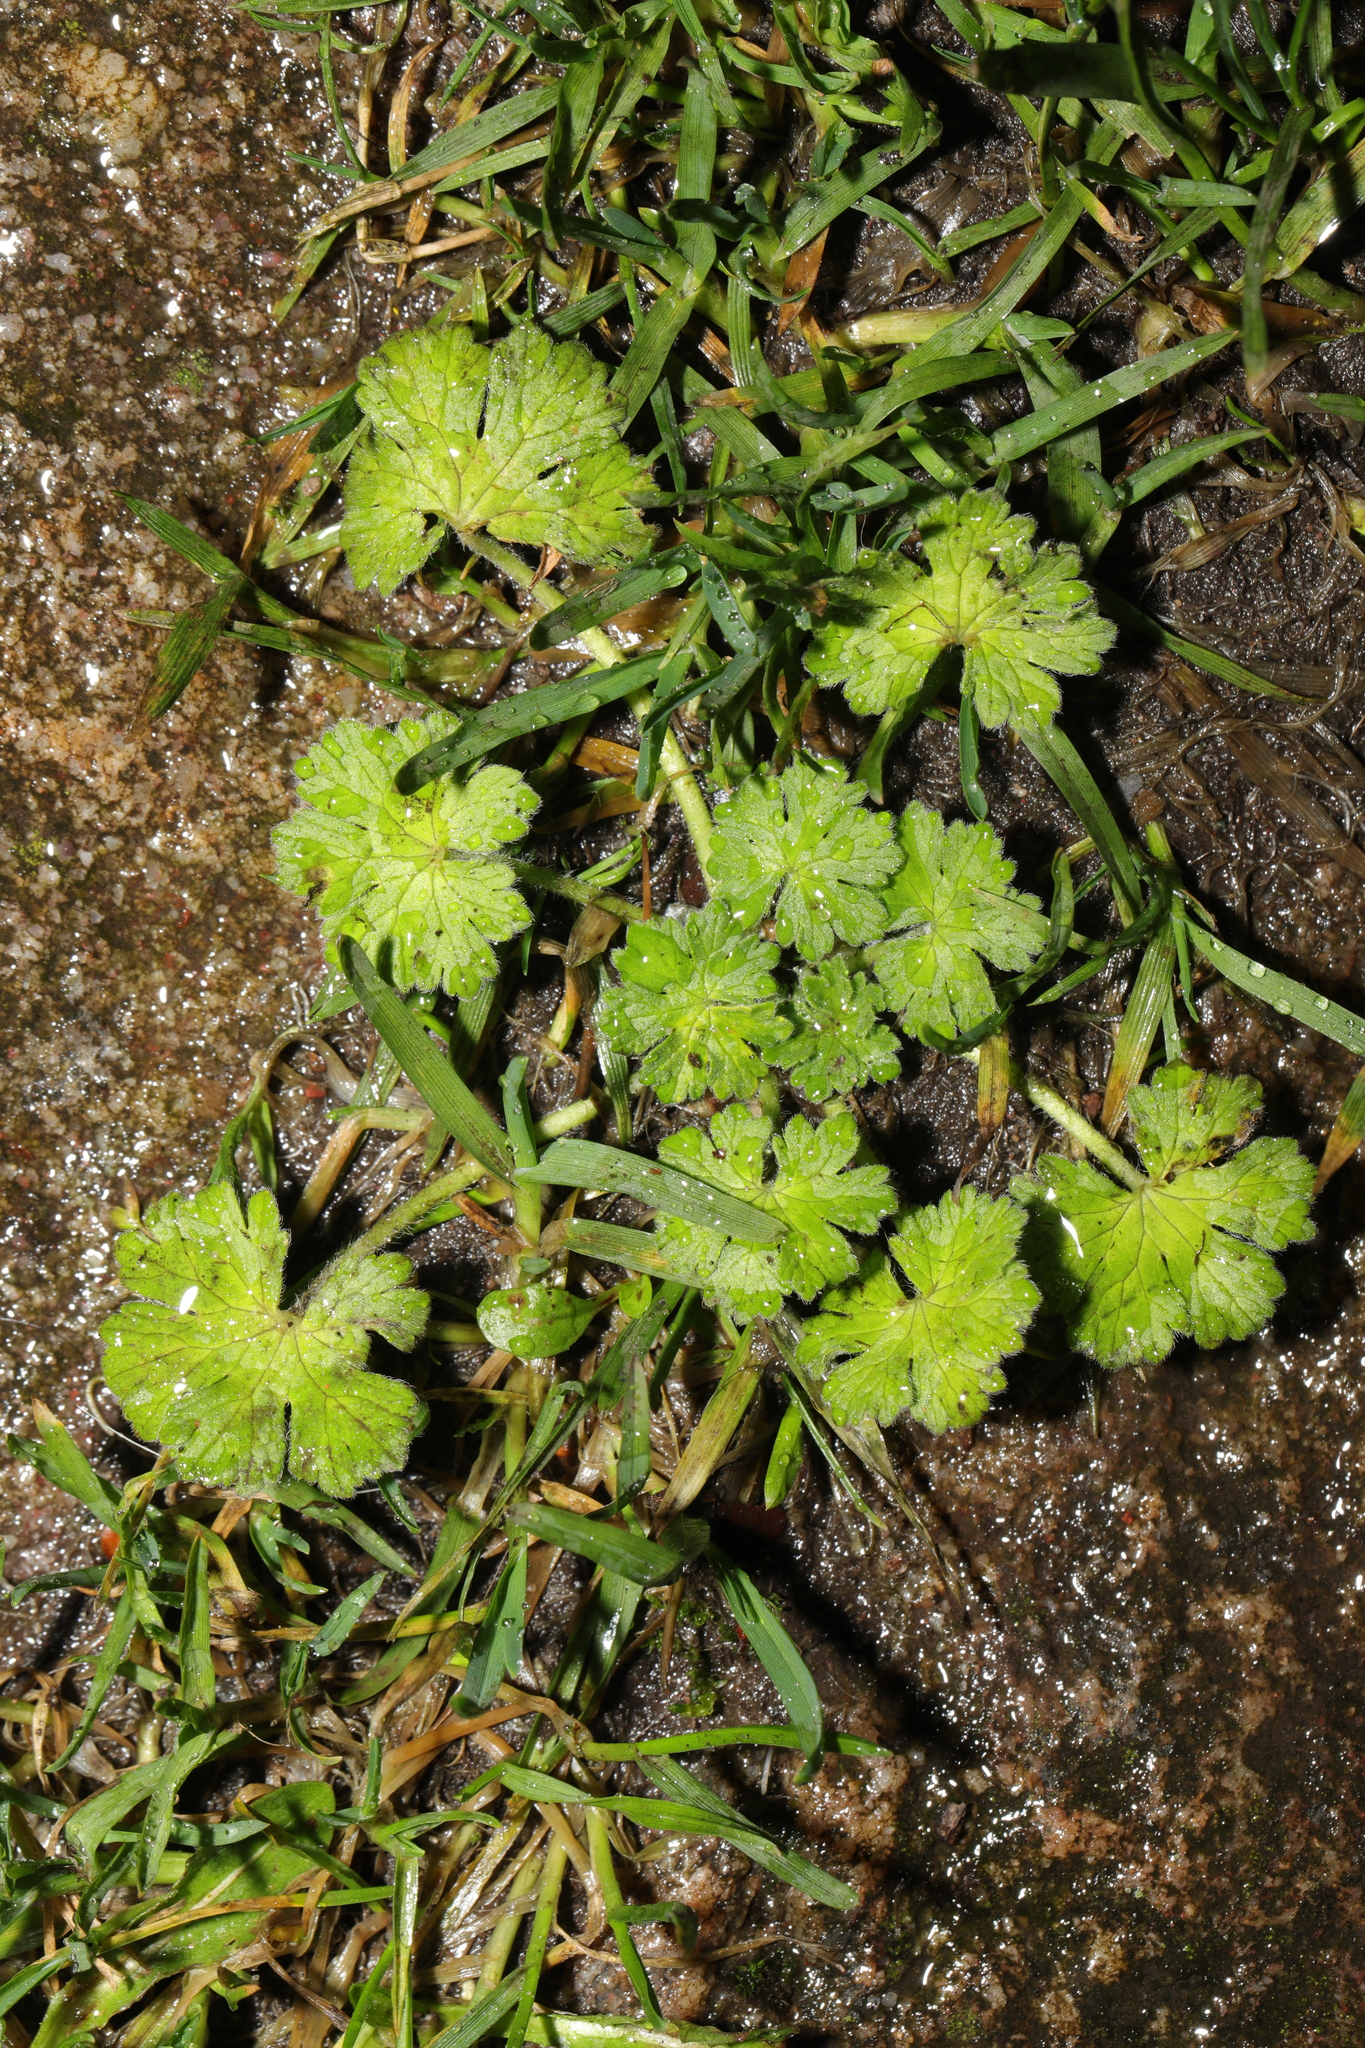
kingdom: Plantae
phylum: Tracheophyta
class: Magnoliopsida
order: Geraniales
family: Geraniaceae
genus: Geranium
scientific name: Geranium molle
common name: Dove's-foot crane's-bill
